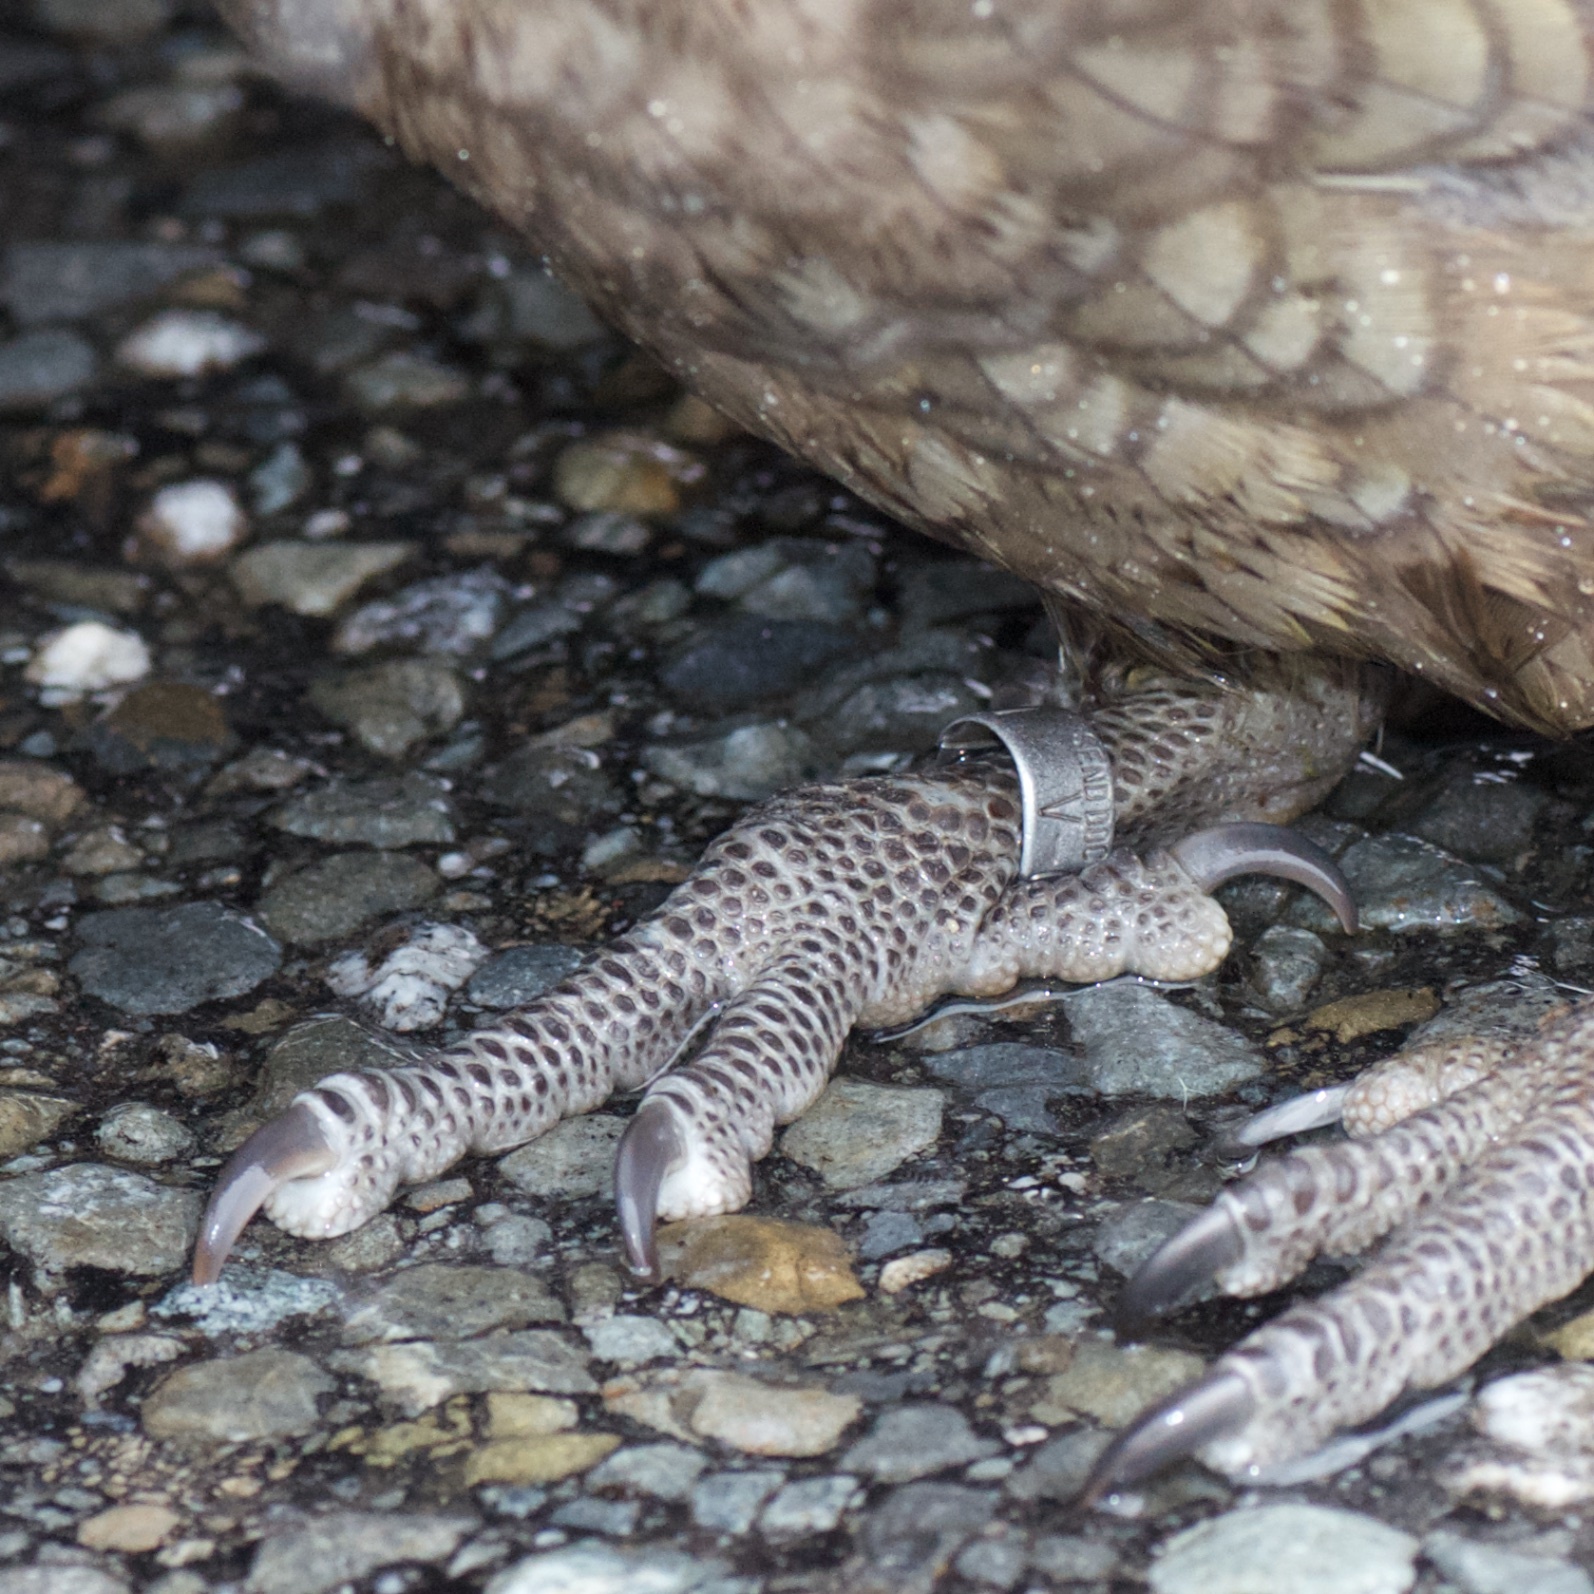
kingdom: Animalia
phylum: Chordata
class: Aves
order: Psittaciformes
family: Psittacidae
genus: Nestor
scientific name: Nestor notabilis
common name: Kea
